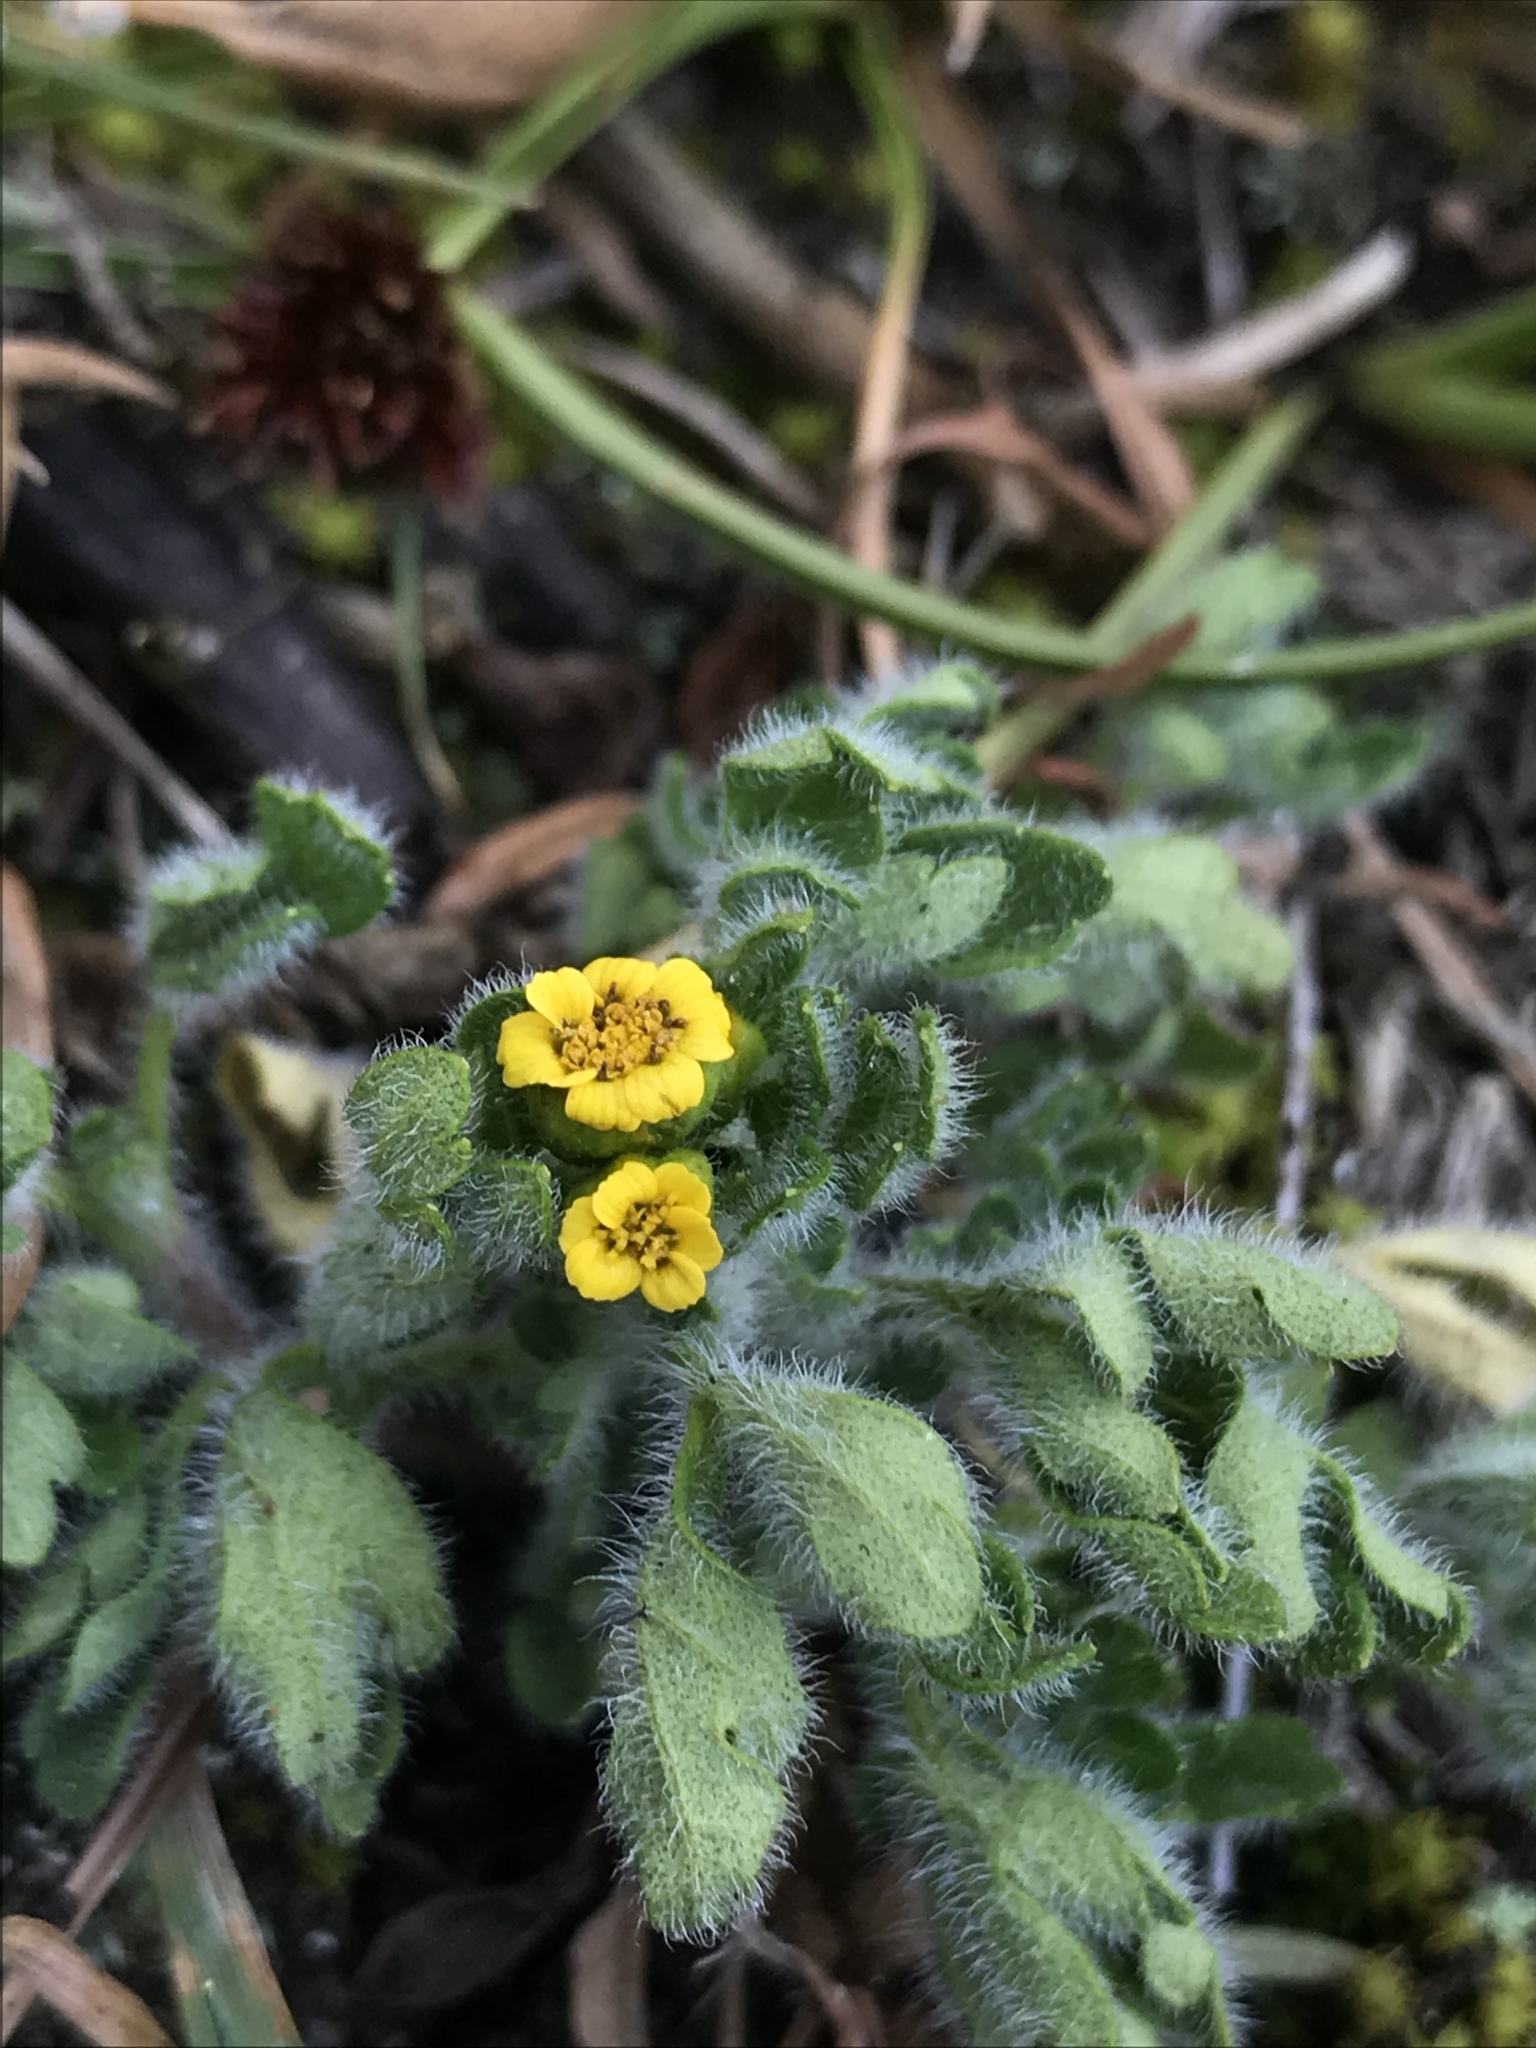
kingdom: Plantae
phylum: Tracheophyta
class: Magnoliopsida
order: Asterales
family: Asteraceae
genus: Villanova
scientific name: Villanova oppositifolia
